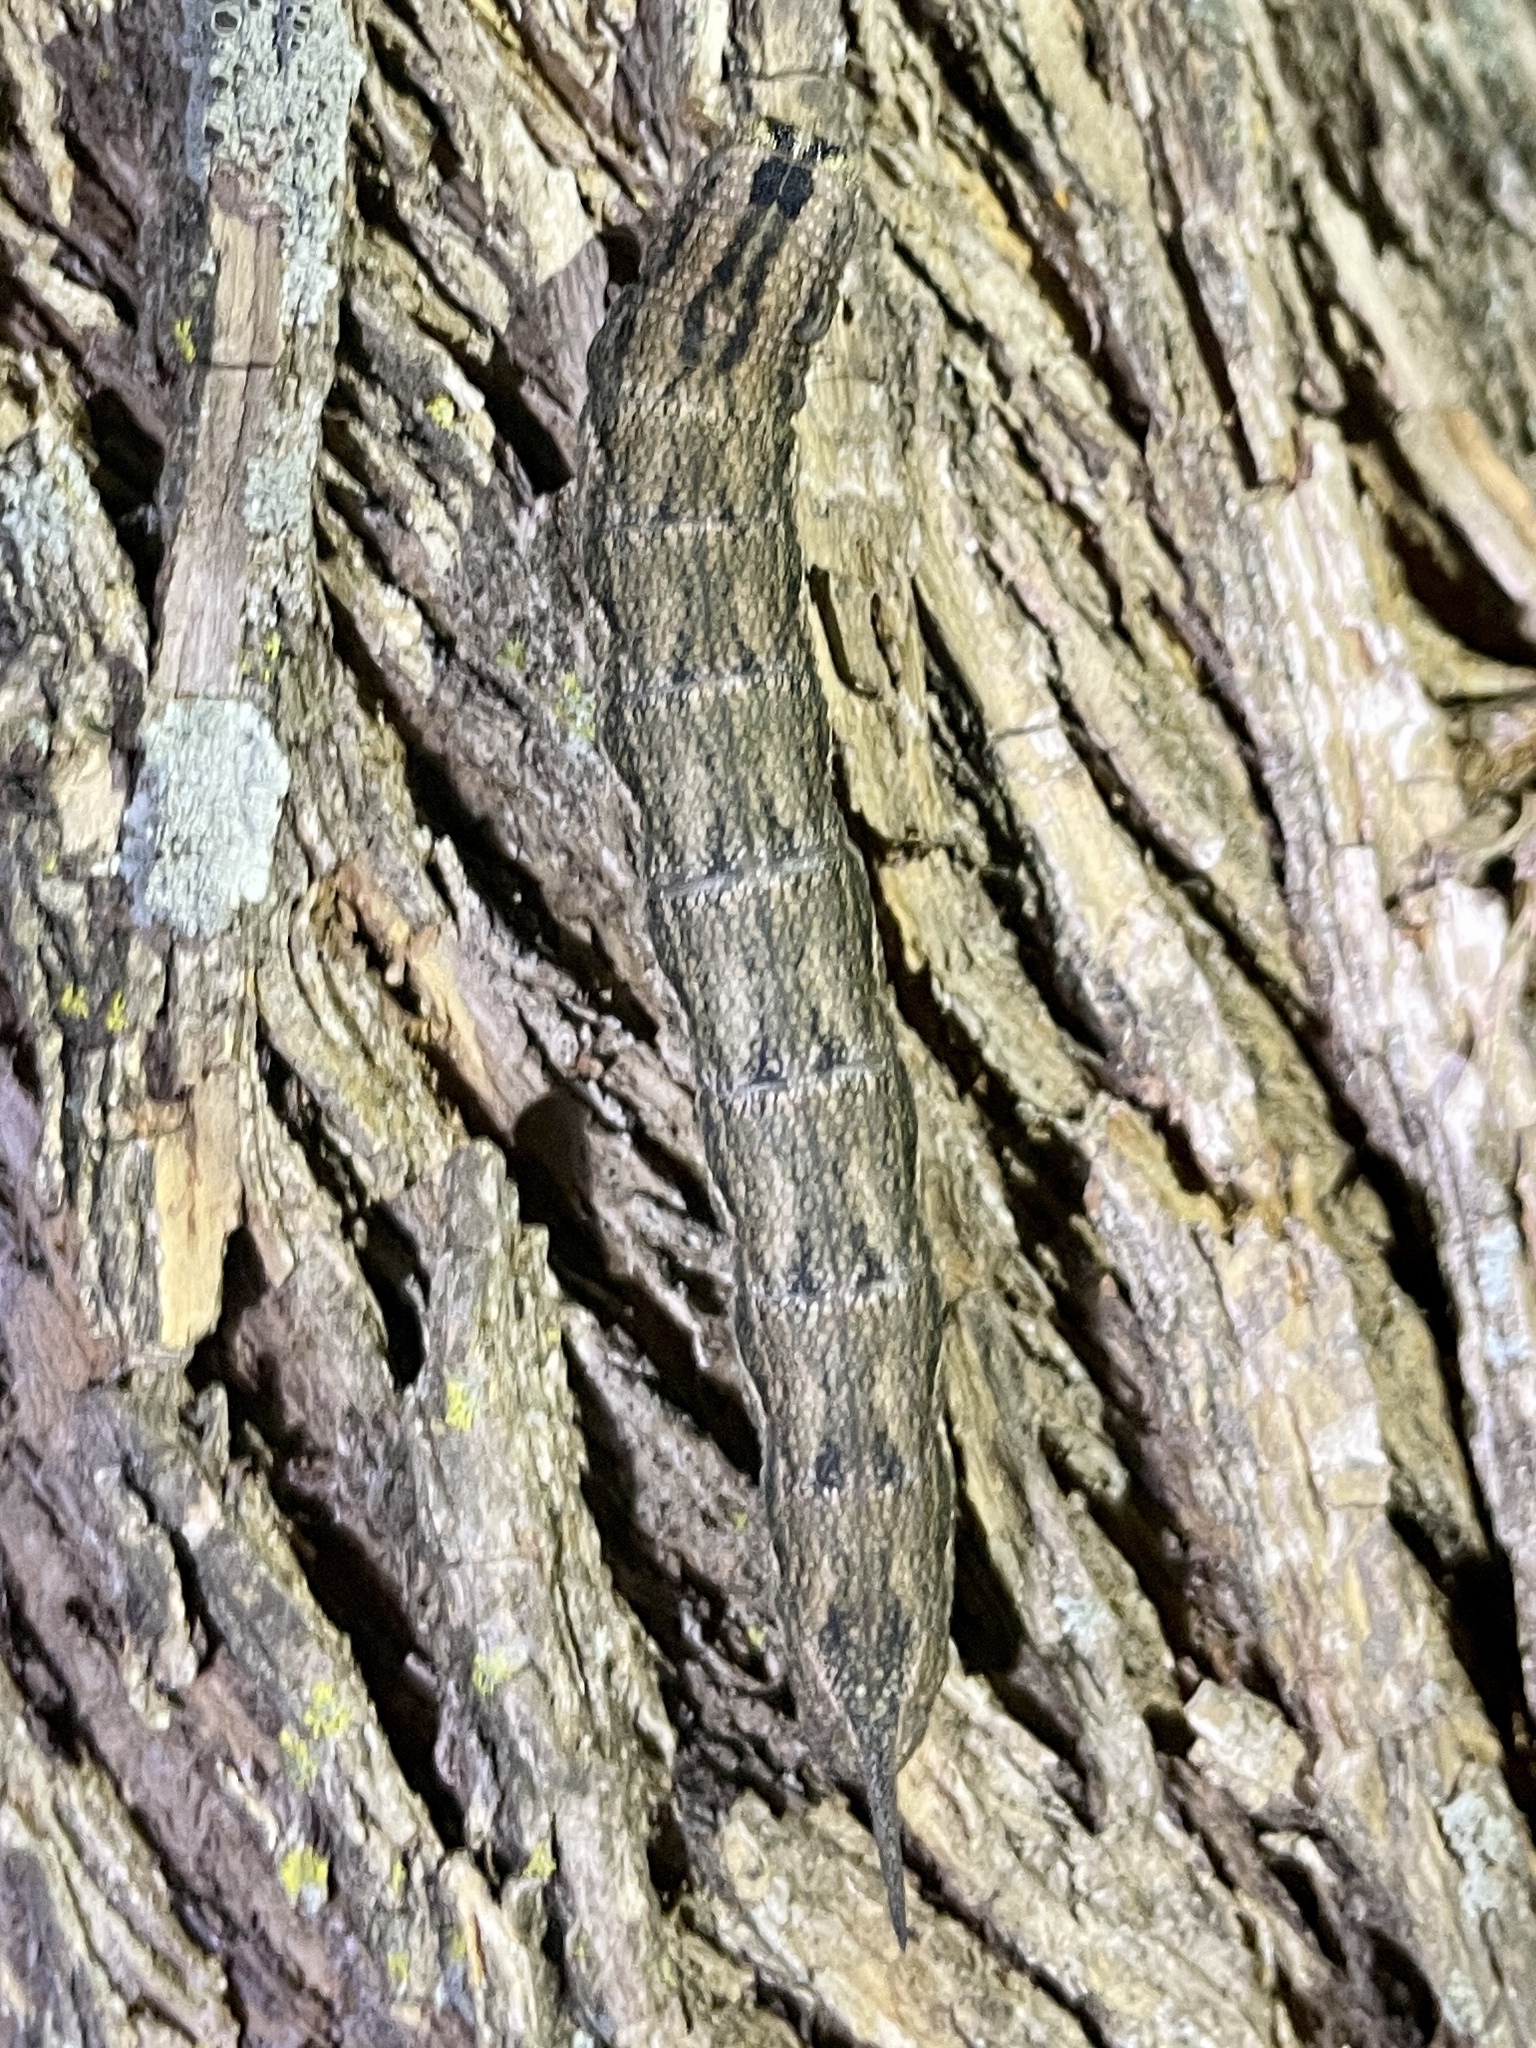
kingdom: Animalia
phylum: Arthropoda
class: Insecta
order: Lepidoptera
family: Sphingidae
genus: Ceratomia
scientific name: Ceratomia hageni
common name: Hagen's sphinx
